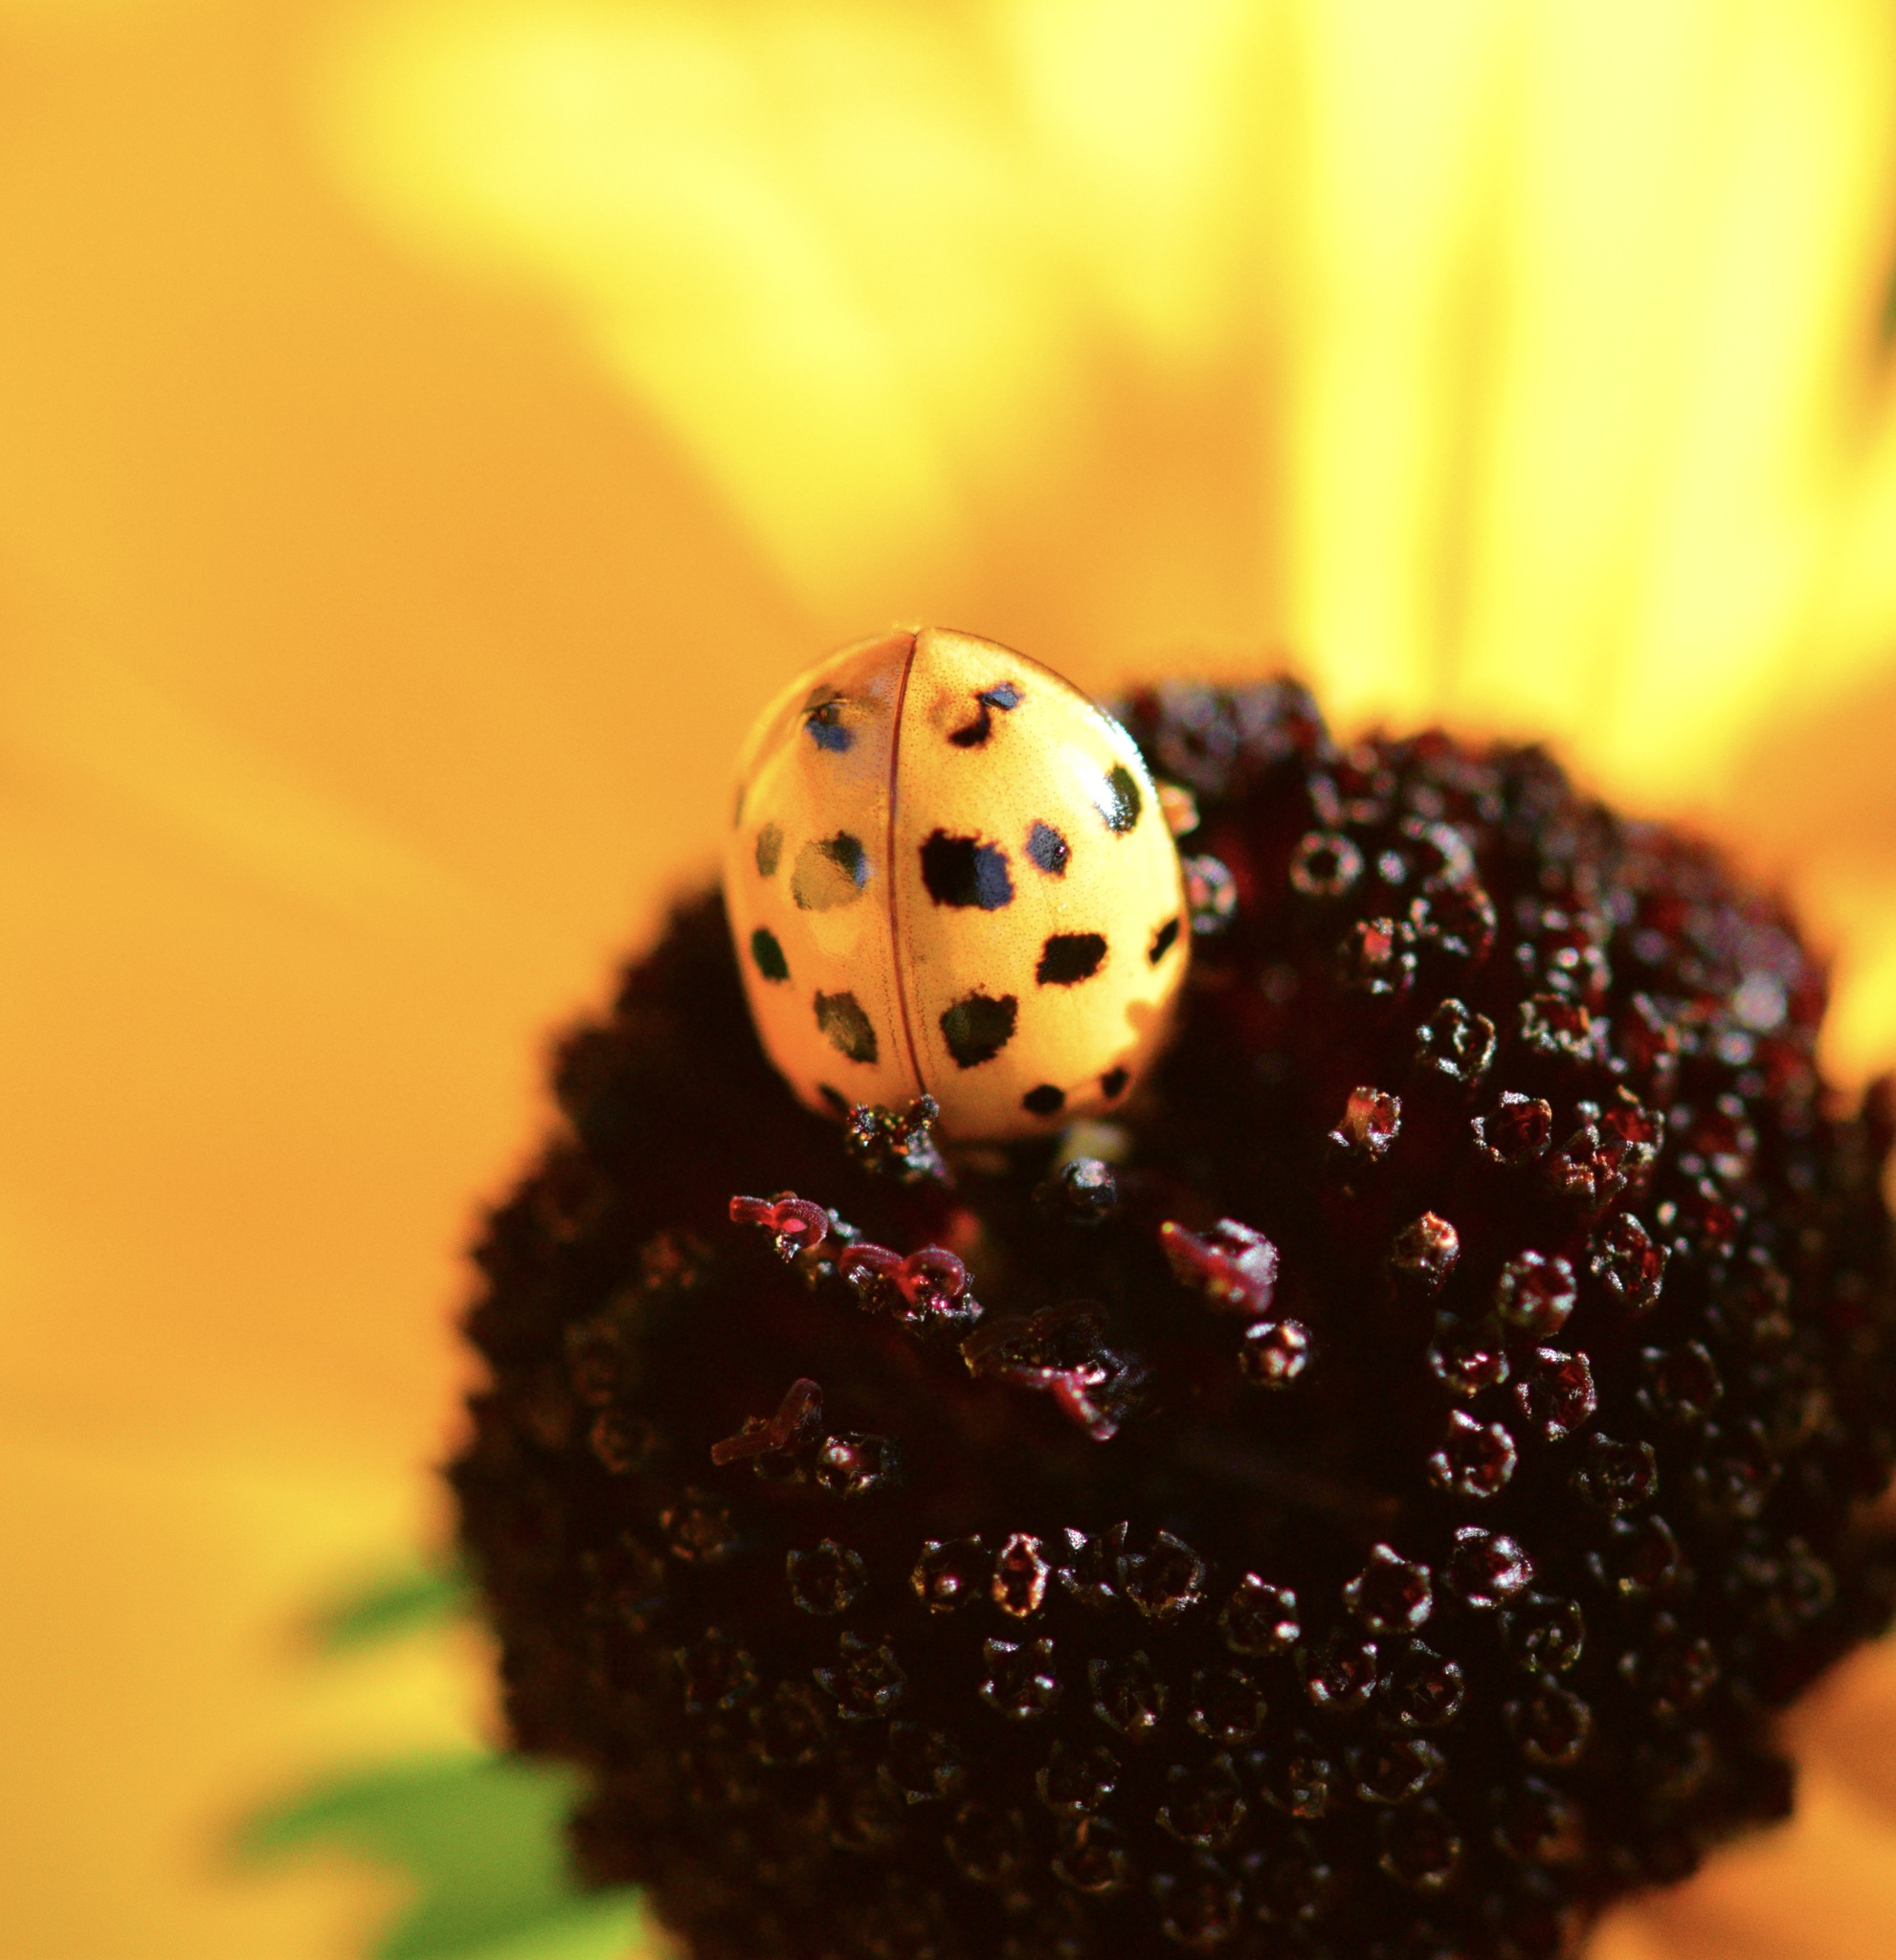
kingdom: Animalia
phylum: Arthropoda
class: Insecta
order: Coleoptera
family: Coccinellidae
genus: Harmonia
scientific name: Harmonia axyridis
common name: Harlequin ladybird
